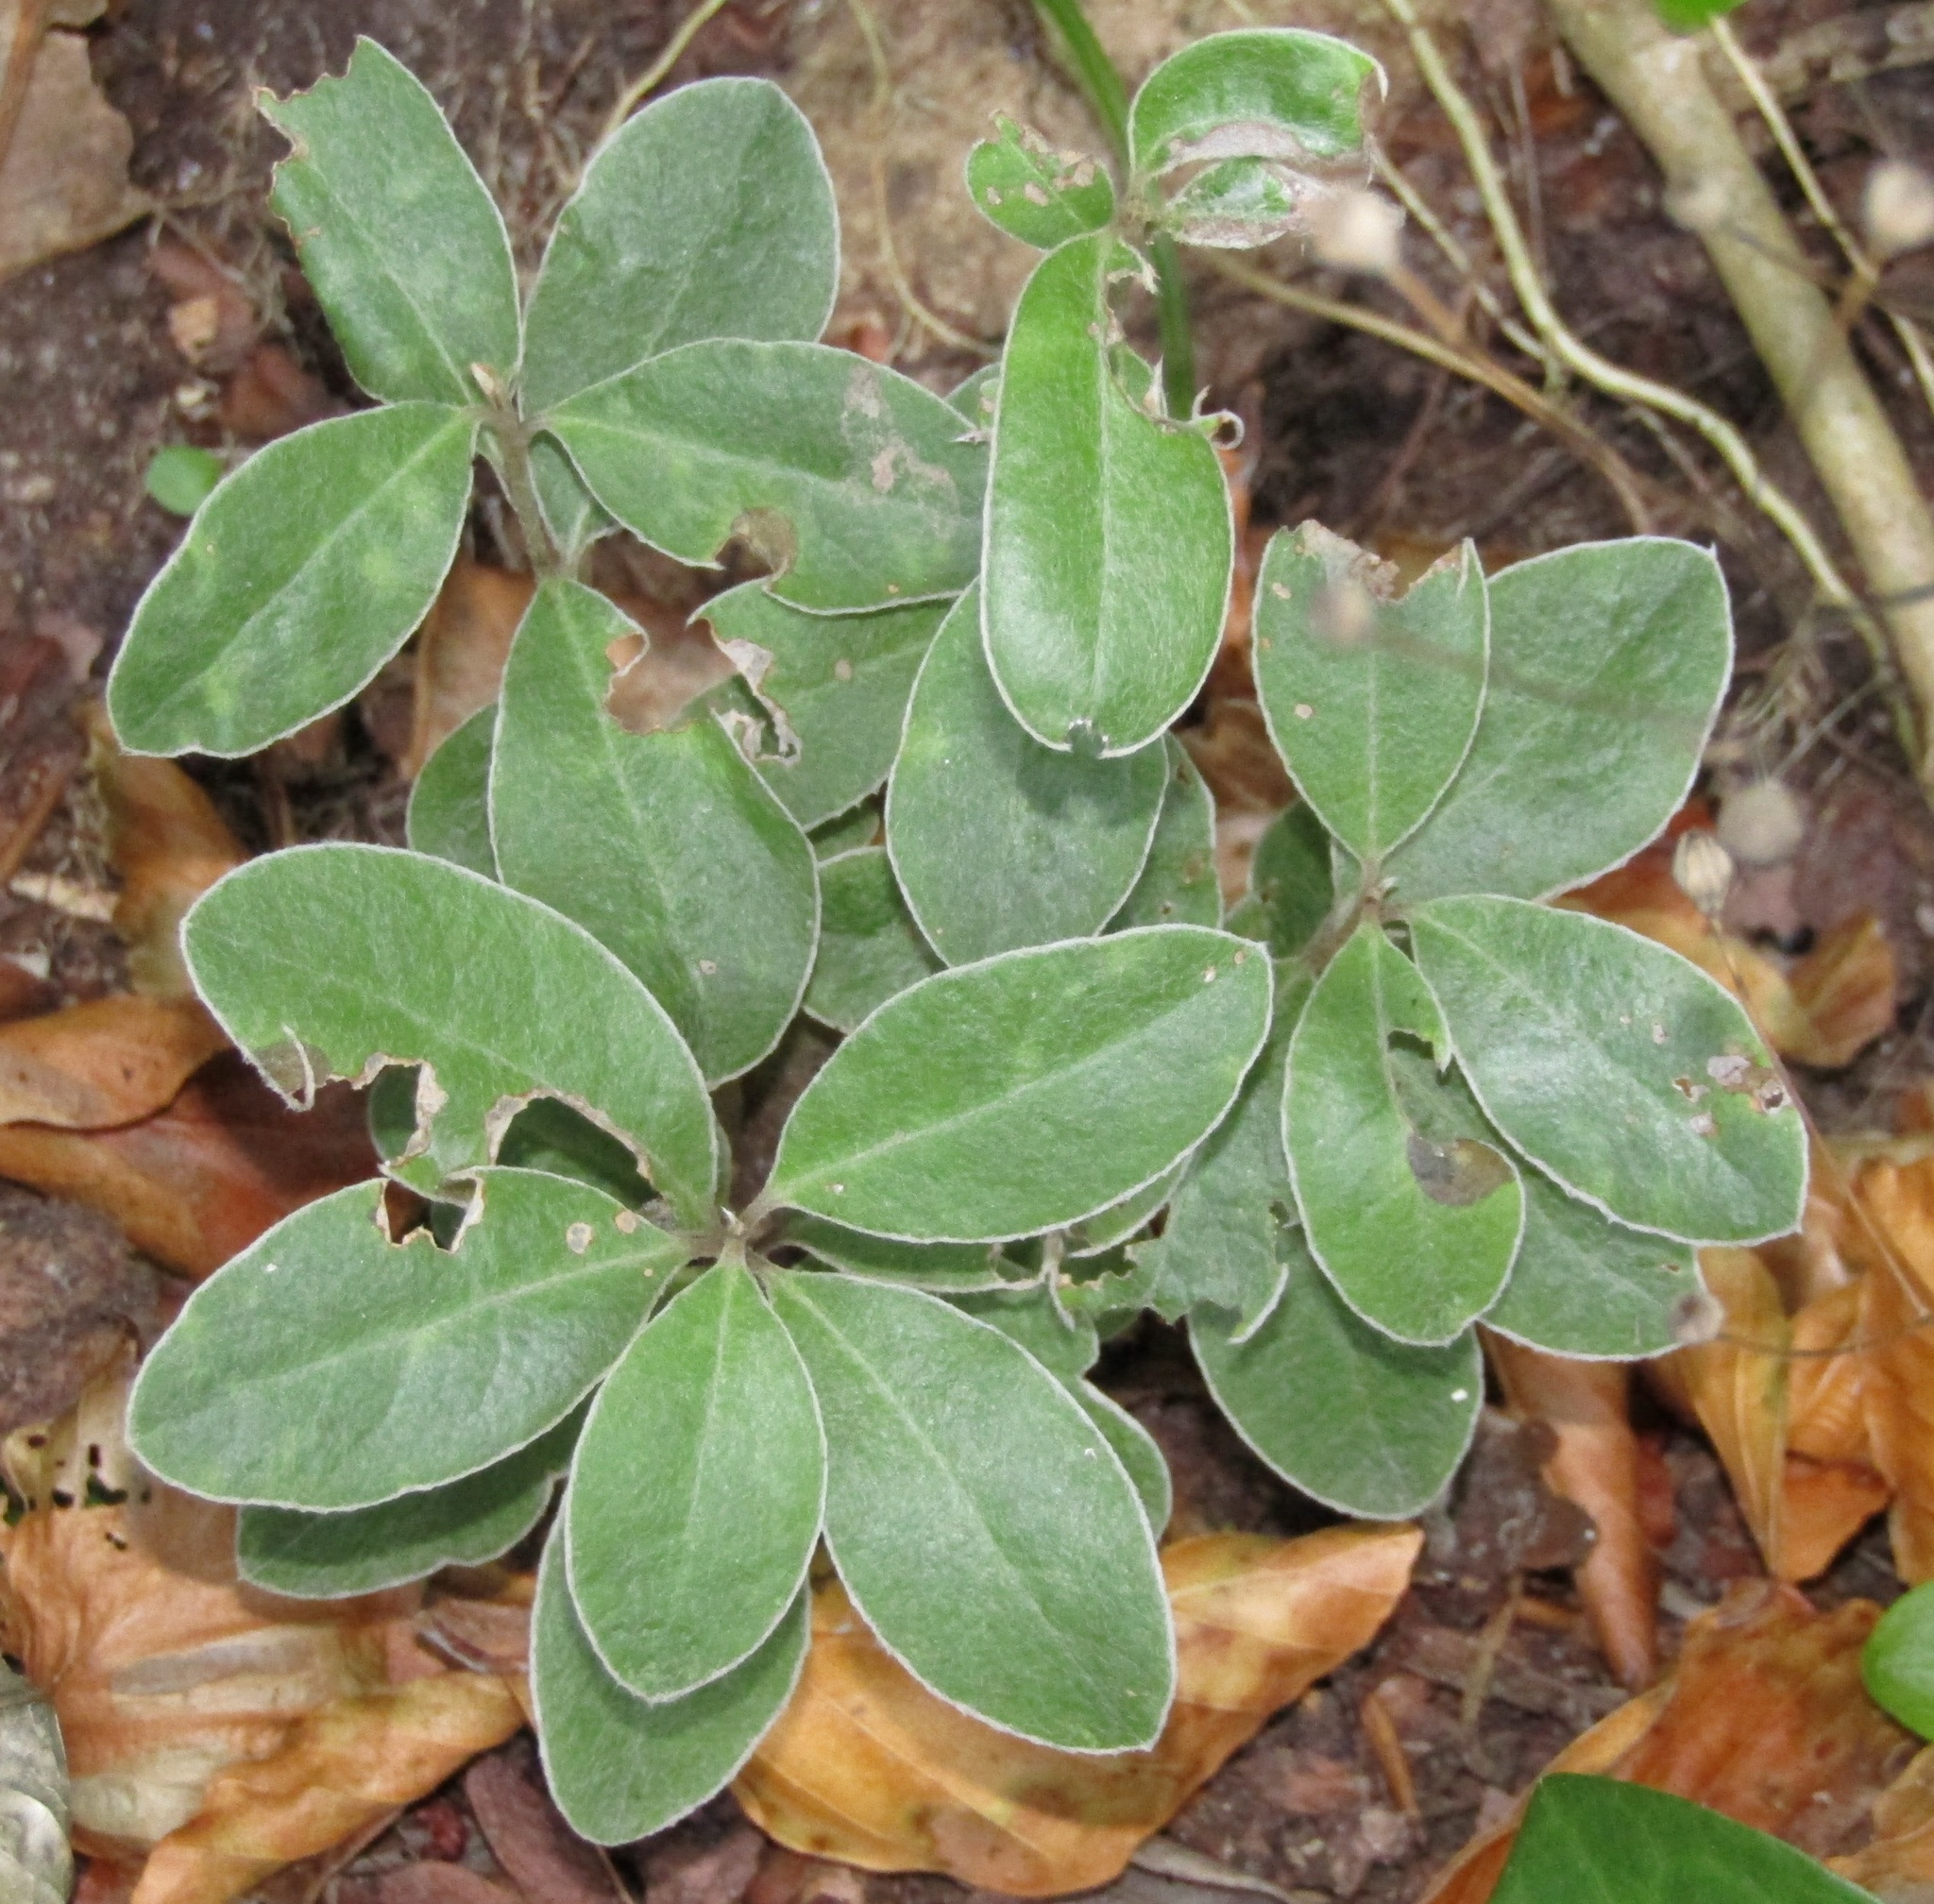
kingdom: Plantae
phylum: Tracheophyta
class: Magnoliopsida
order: Apiales
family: Pittosporaceae
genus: Pittosporum
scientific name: Pittosporum ralphii
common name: Ralph's desertwillow
